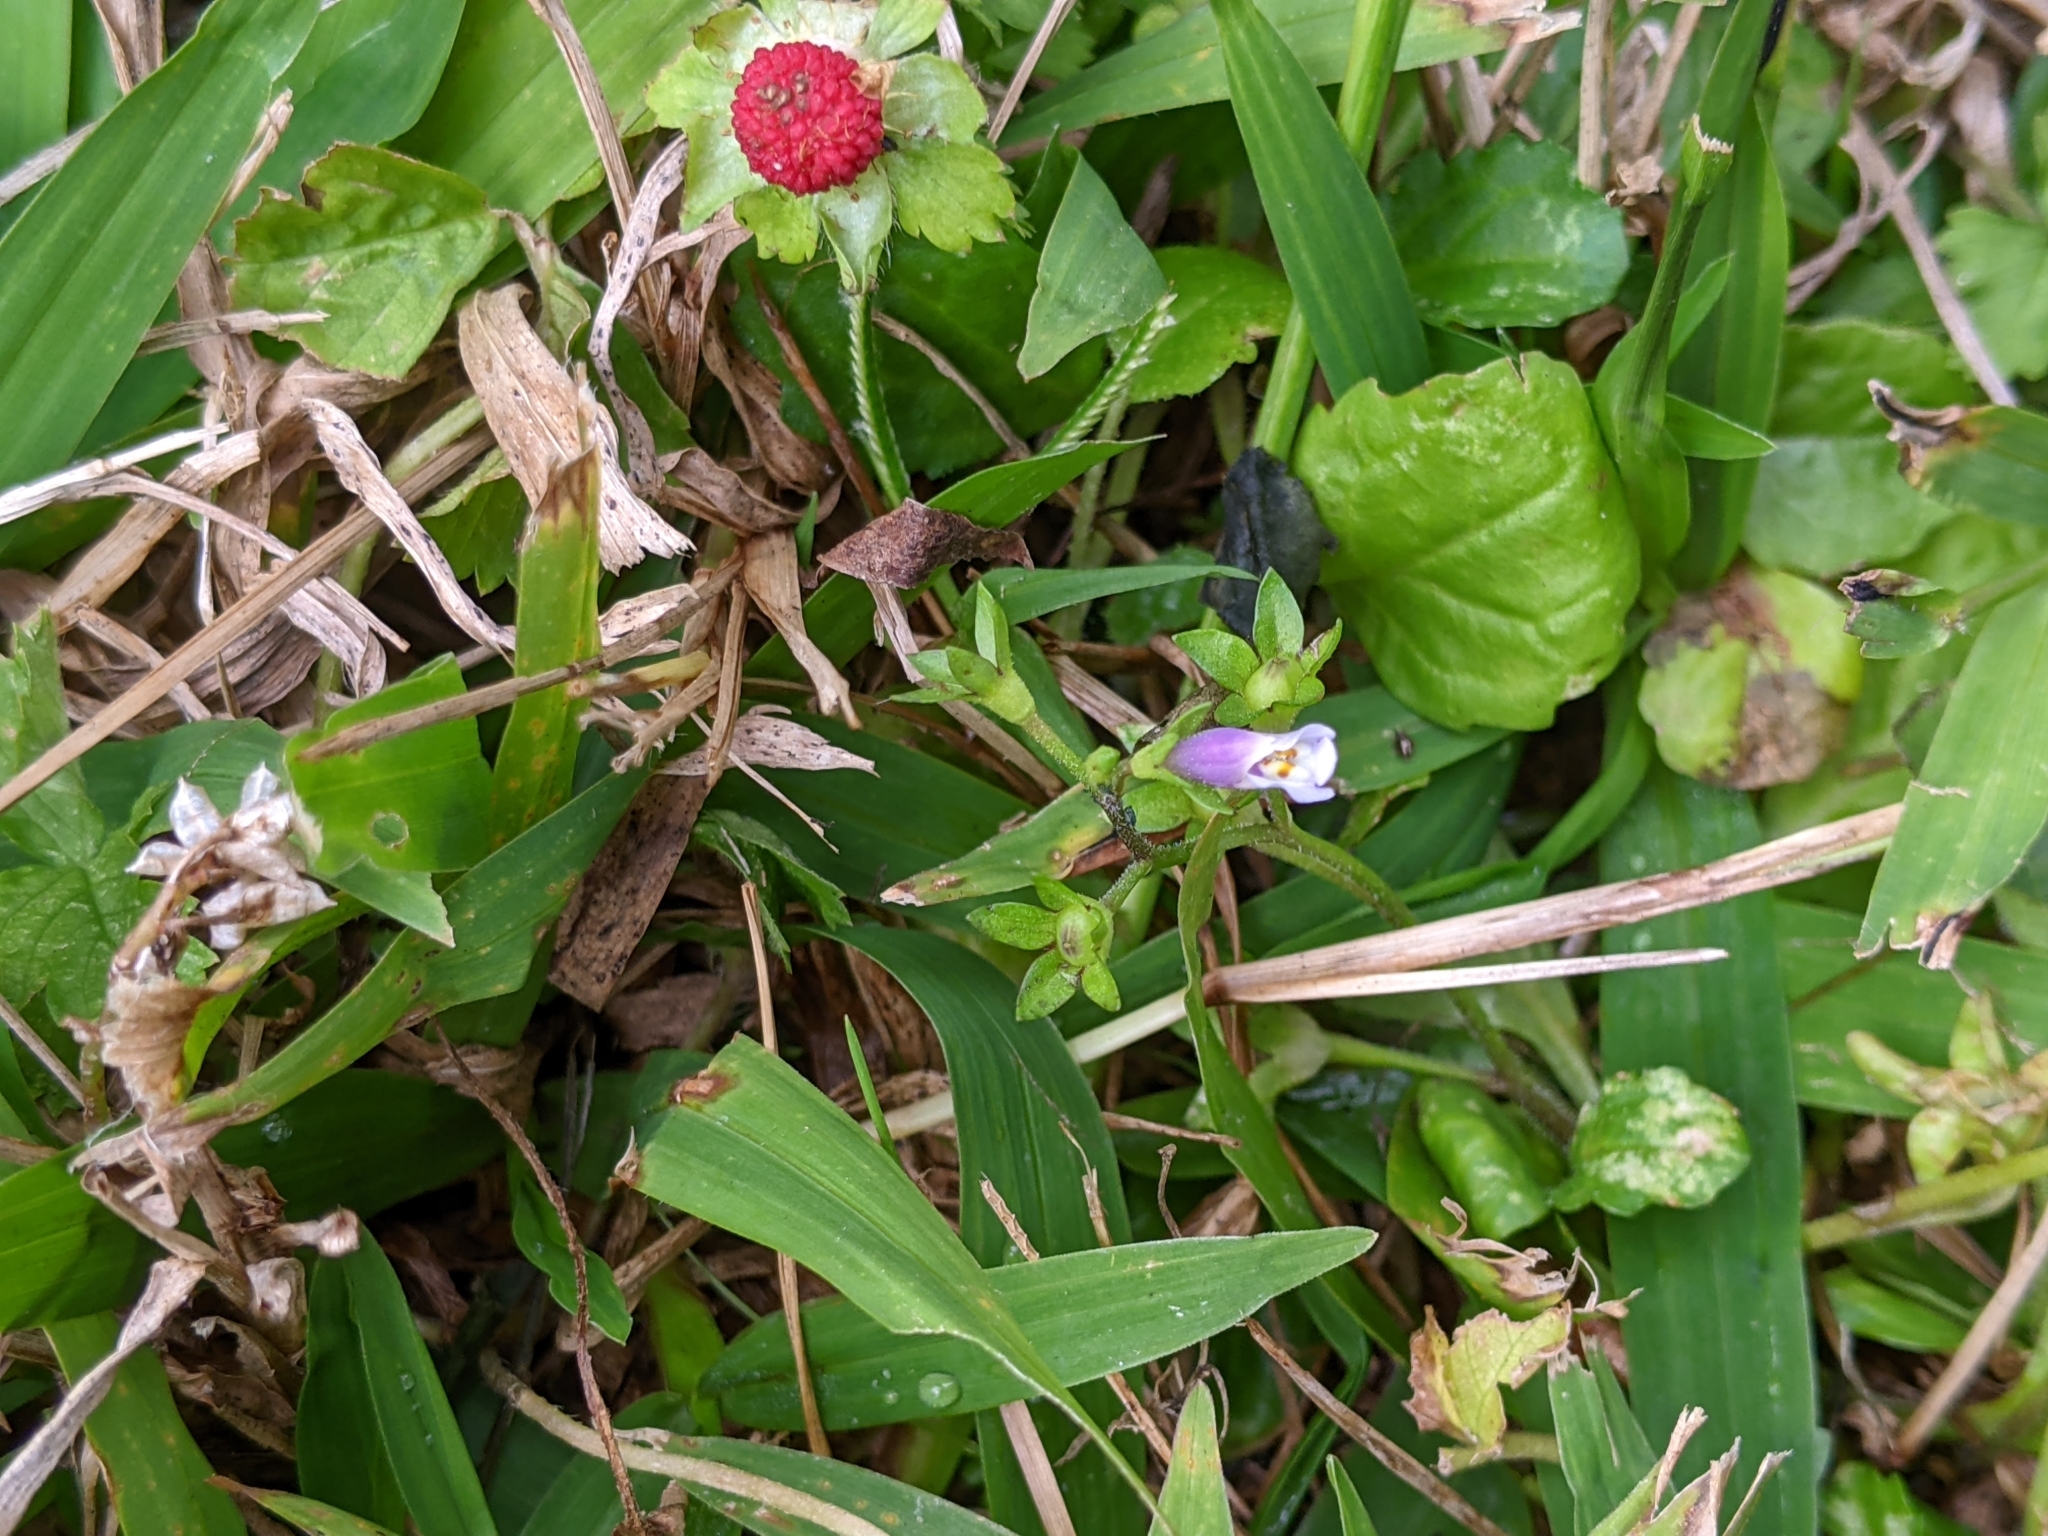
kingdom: Plantae
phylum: Tracheophyta
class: Magnoliopsida
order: Lamiales
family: Mazaceae
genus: Mazus
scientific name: Mazus pumilus
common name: Japanese mazus
